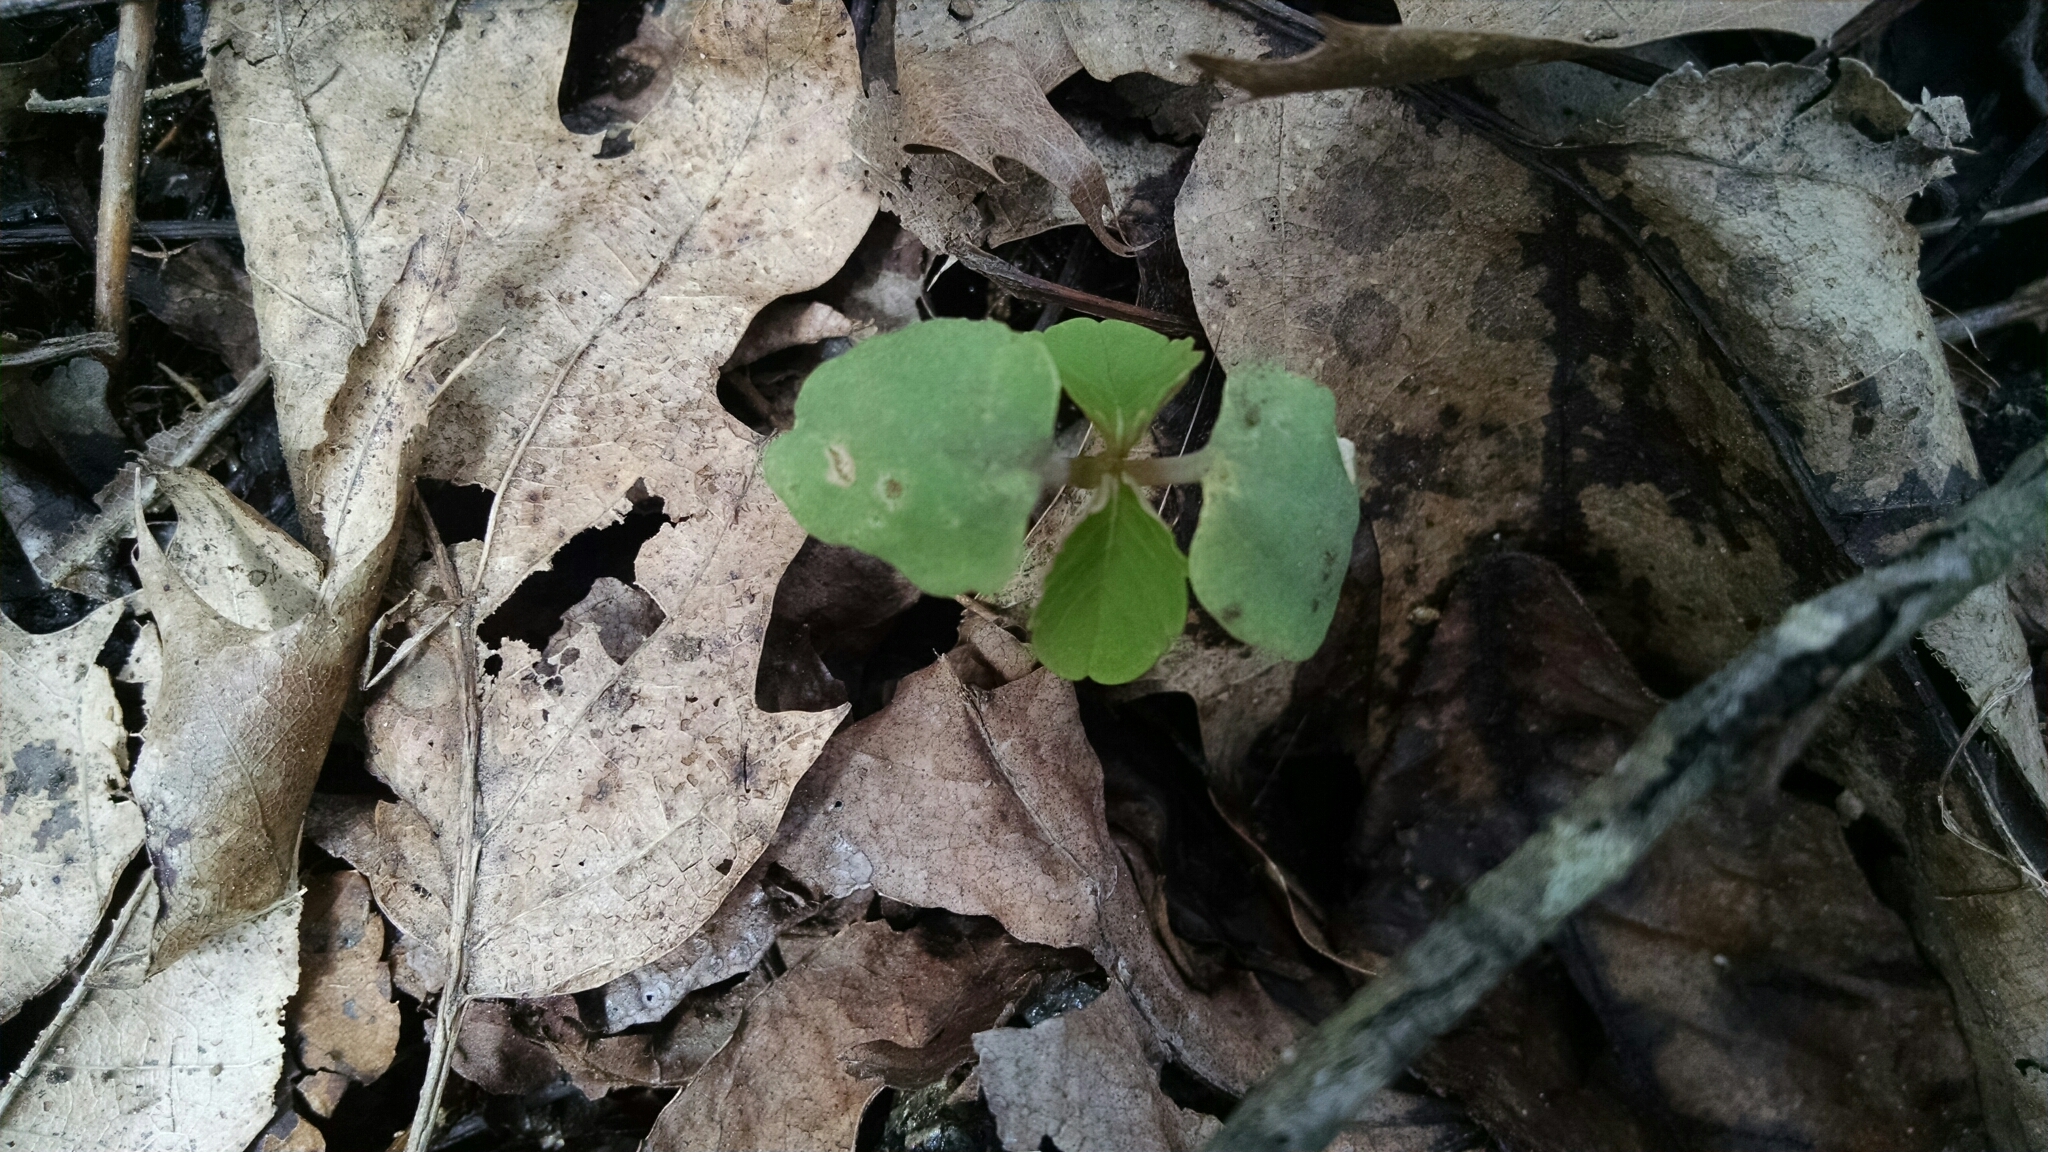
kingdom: Plantae
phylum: Tracheophyta
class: Magnoliopsida
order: Ericales
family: Balsaminaceae
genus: Impatiens
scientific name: Impatiens
